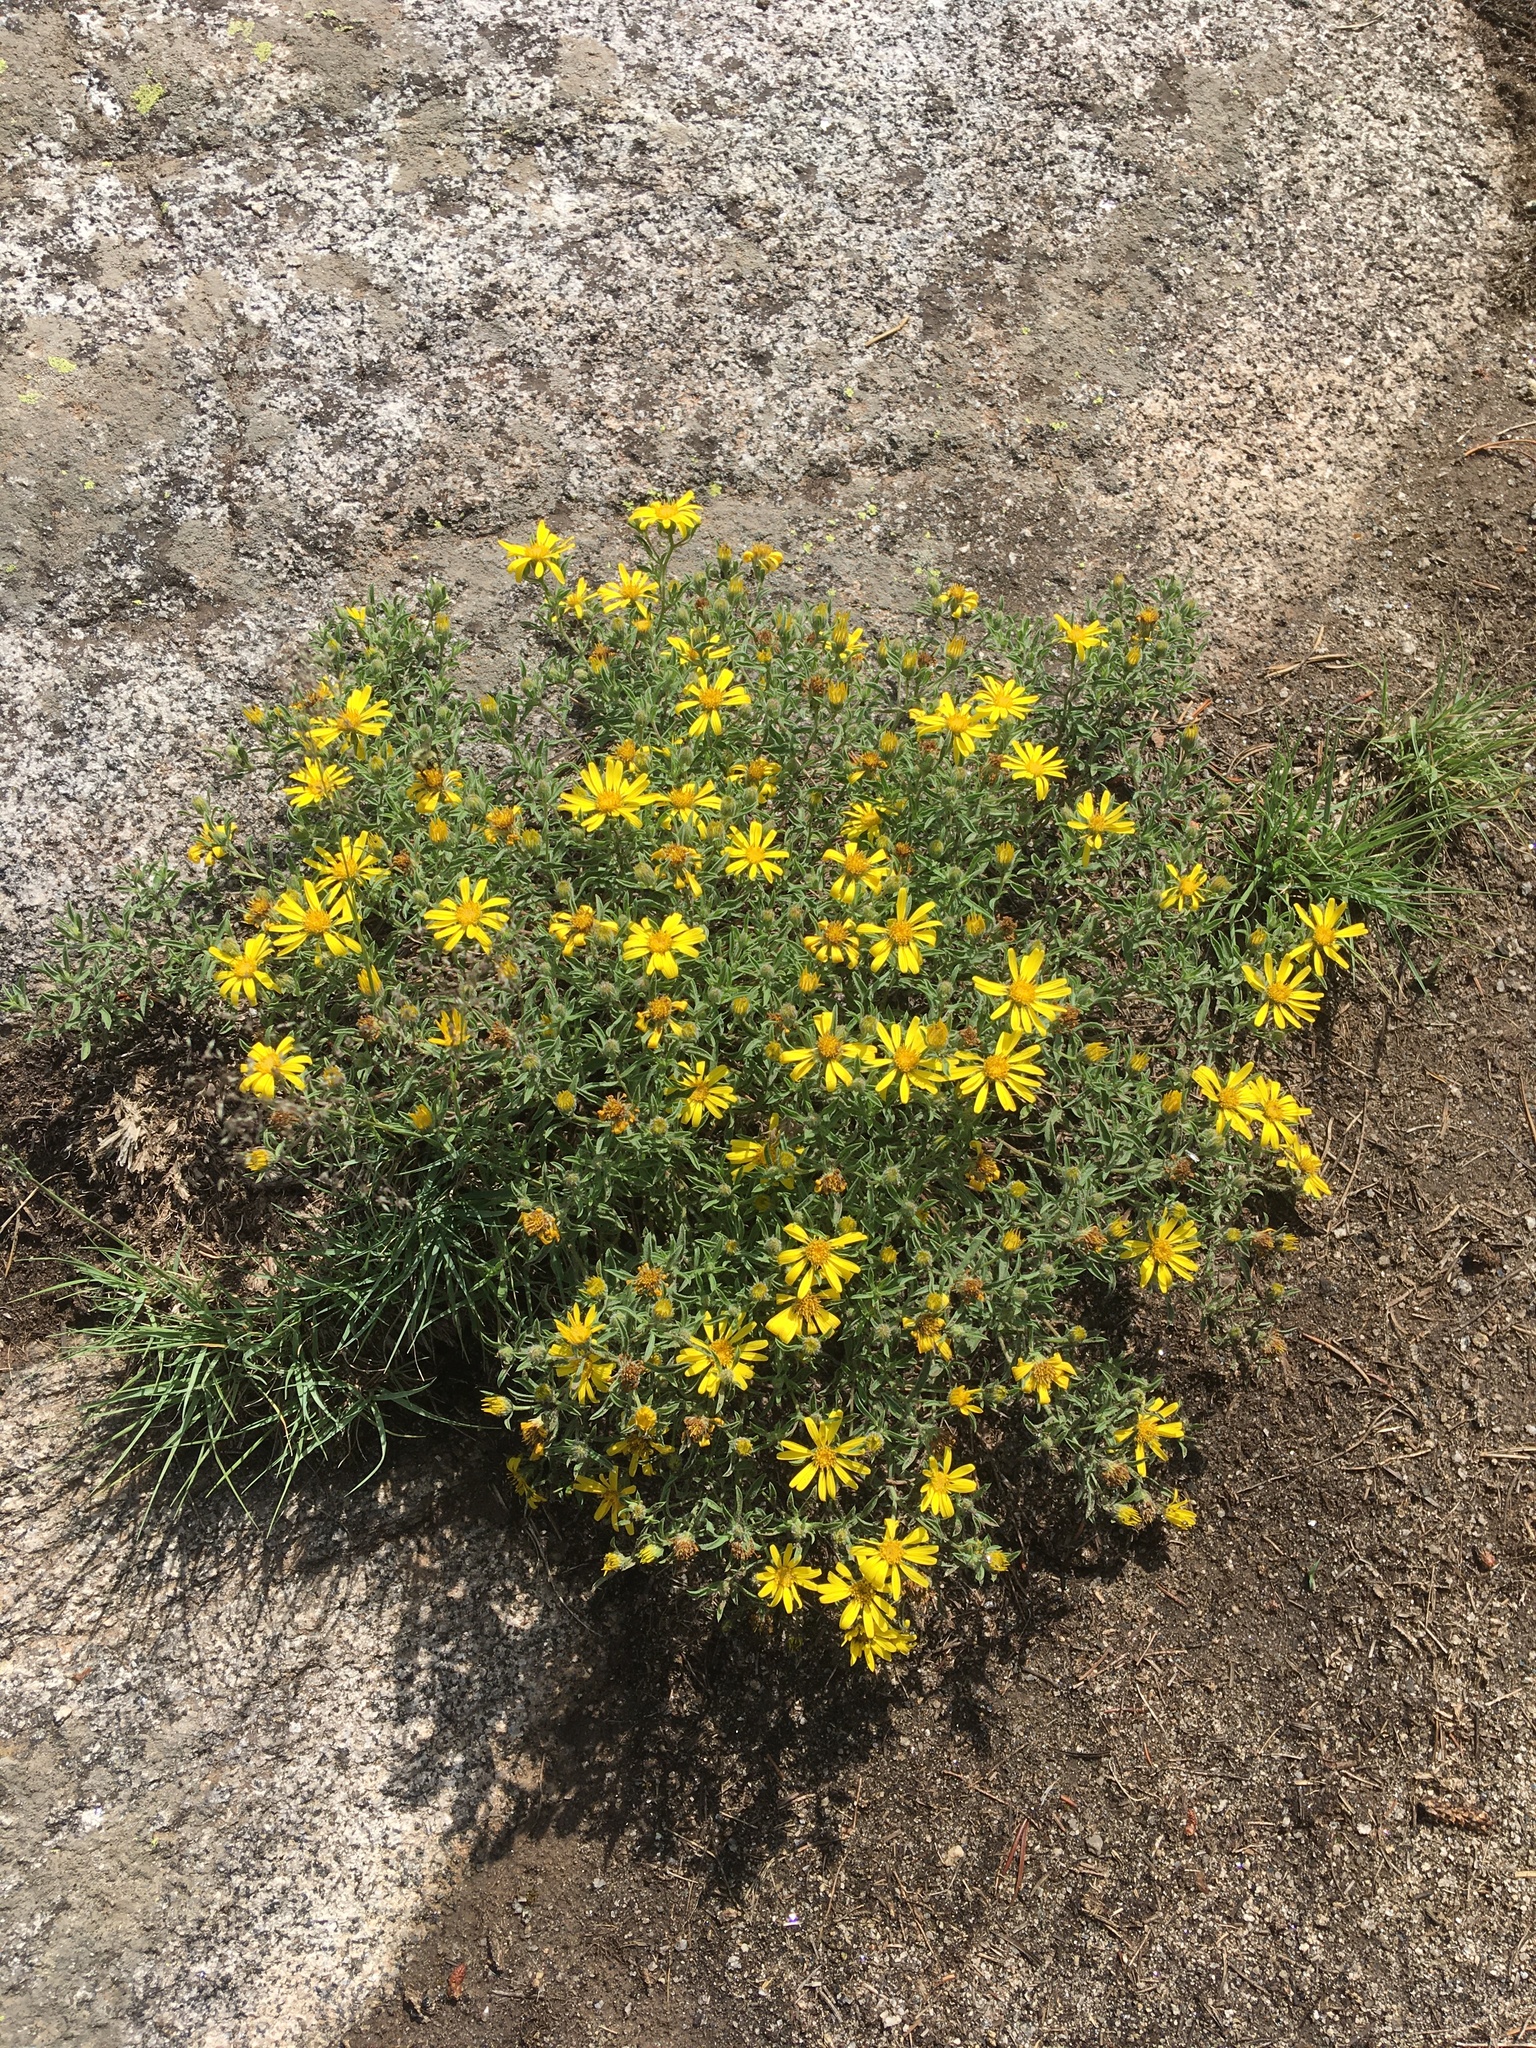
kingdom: Plantae
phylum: Tracheophyta
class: Magnoliopsida
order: Asterales
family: Asteraceae
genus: Heterotheca
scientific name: Heterotheca villosa
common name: Hairy false goldenaster
